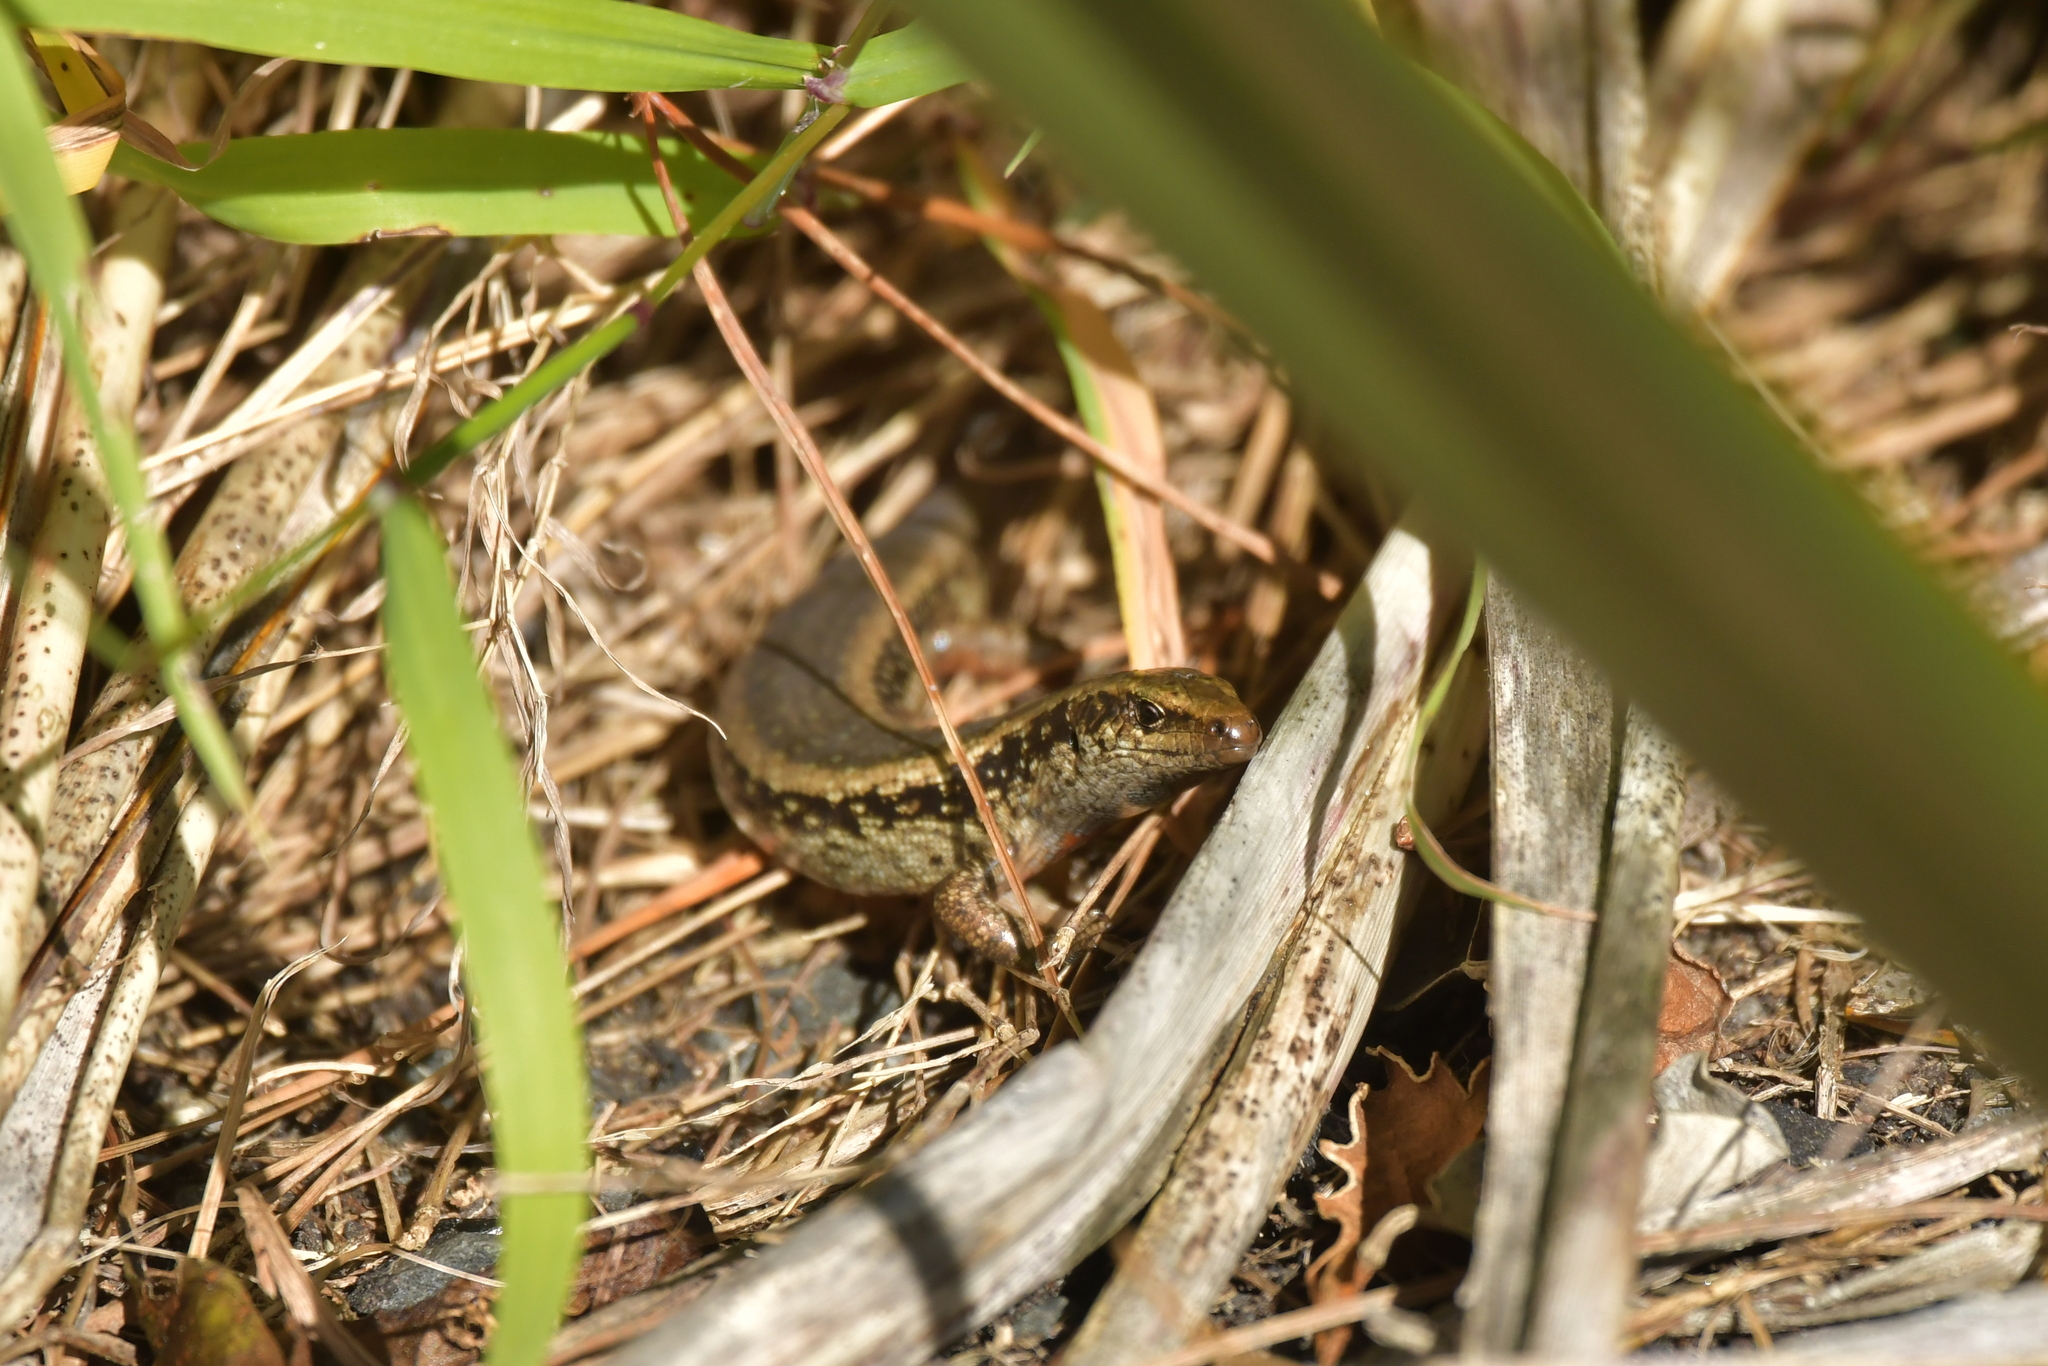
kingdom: Animalia
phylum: Chordata
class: Squamata
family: Scincidae
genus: Oligosoma
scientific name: Oligosoma kokowai
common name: Northern spotted skink
